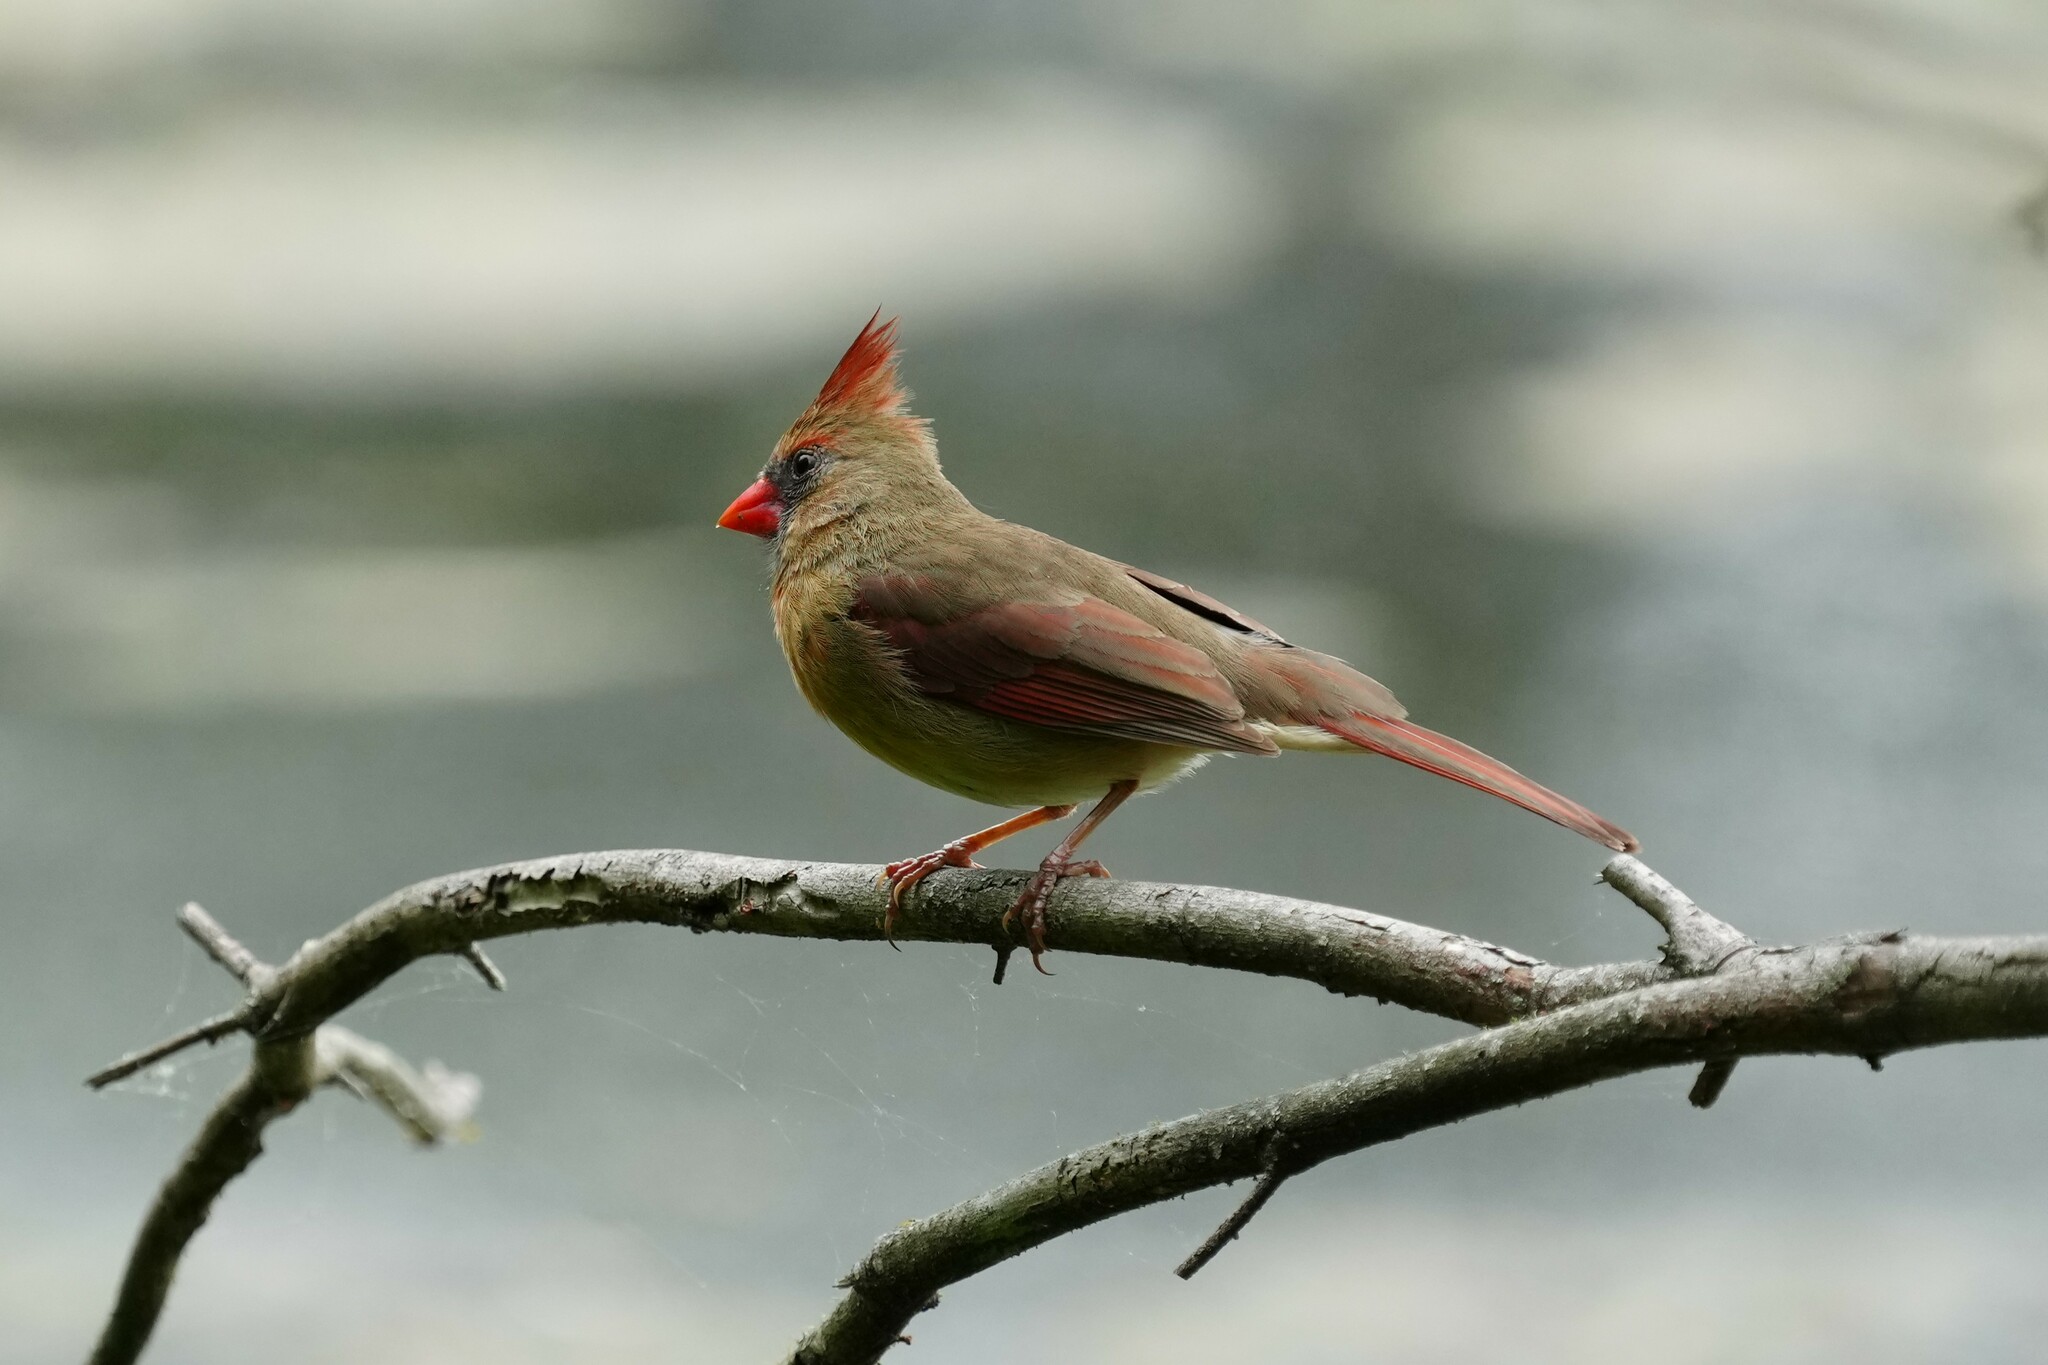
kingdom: Animalia
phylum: Chordata
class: Aves
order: Passeriformes
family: Cardinalidae
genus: Cardinalis
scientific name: Cardinalis cardinalis
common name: Northern cardinal
